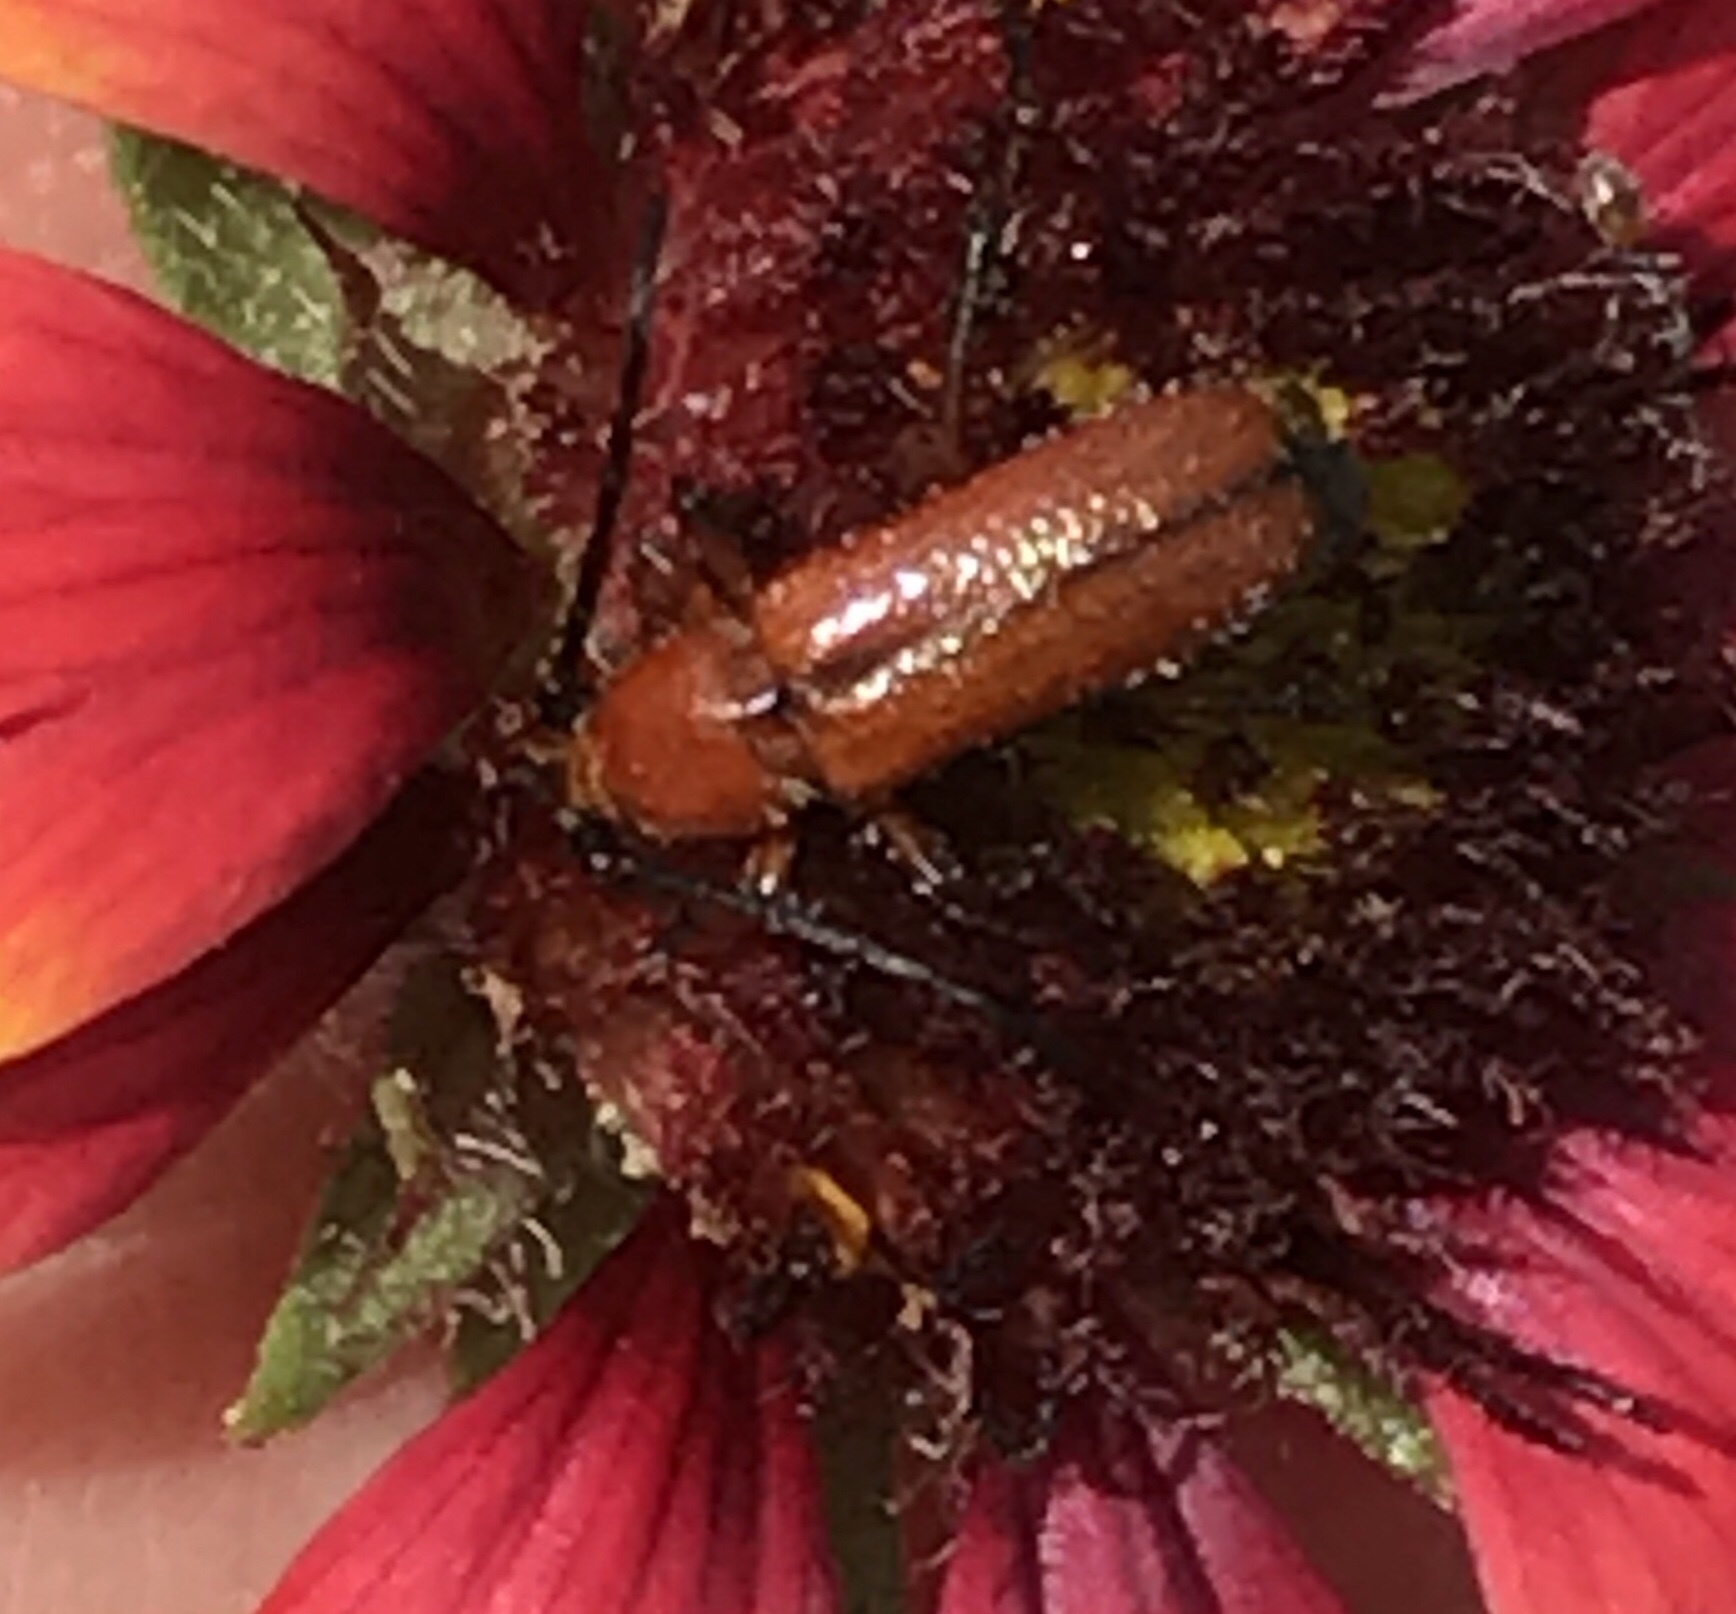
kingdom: Animalia
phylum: Arthropoda
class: Insecta
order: Coleoptera
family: Cerambycidae
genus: Batyle
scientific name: Batyle suturalis
